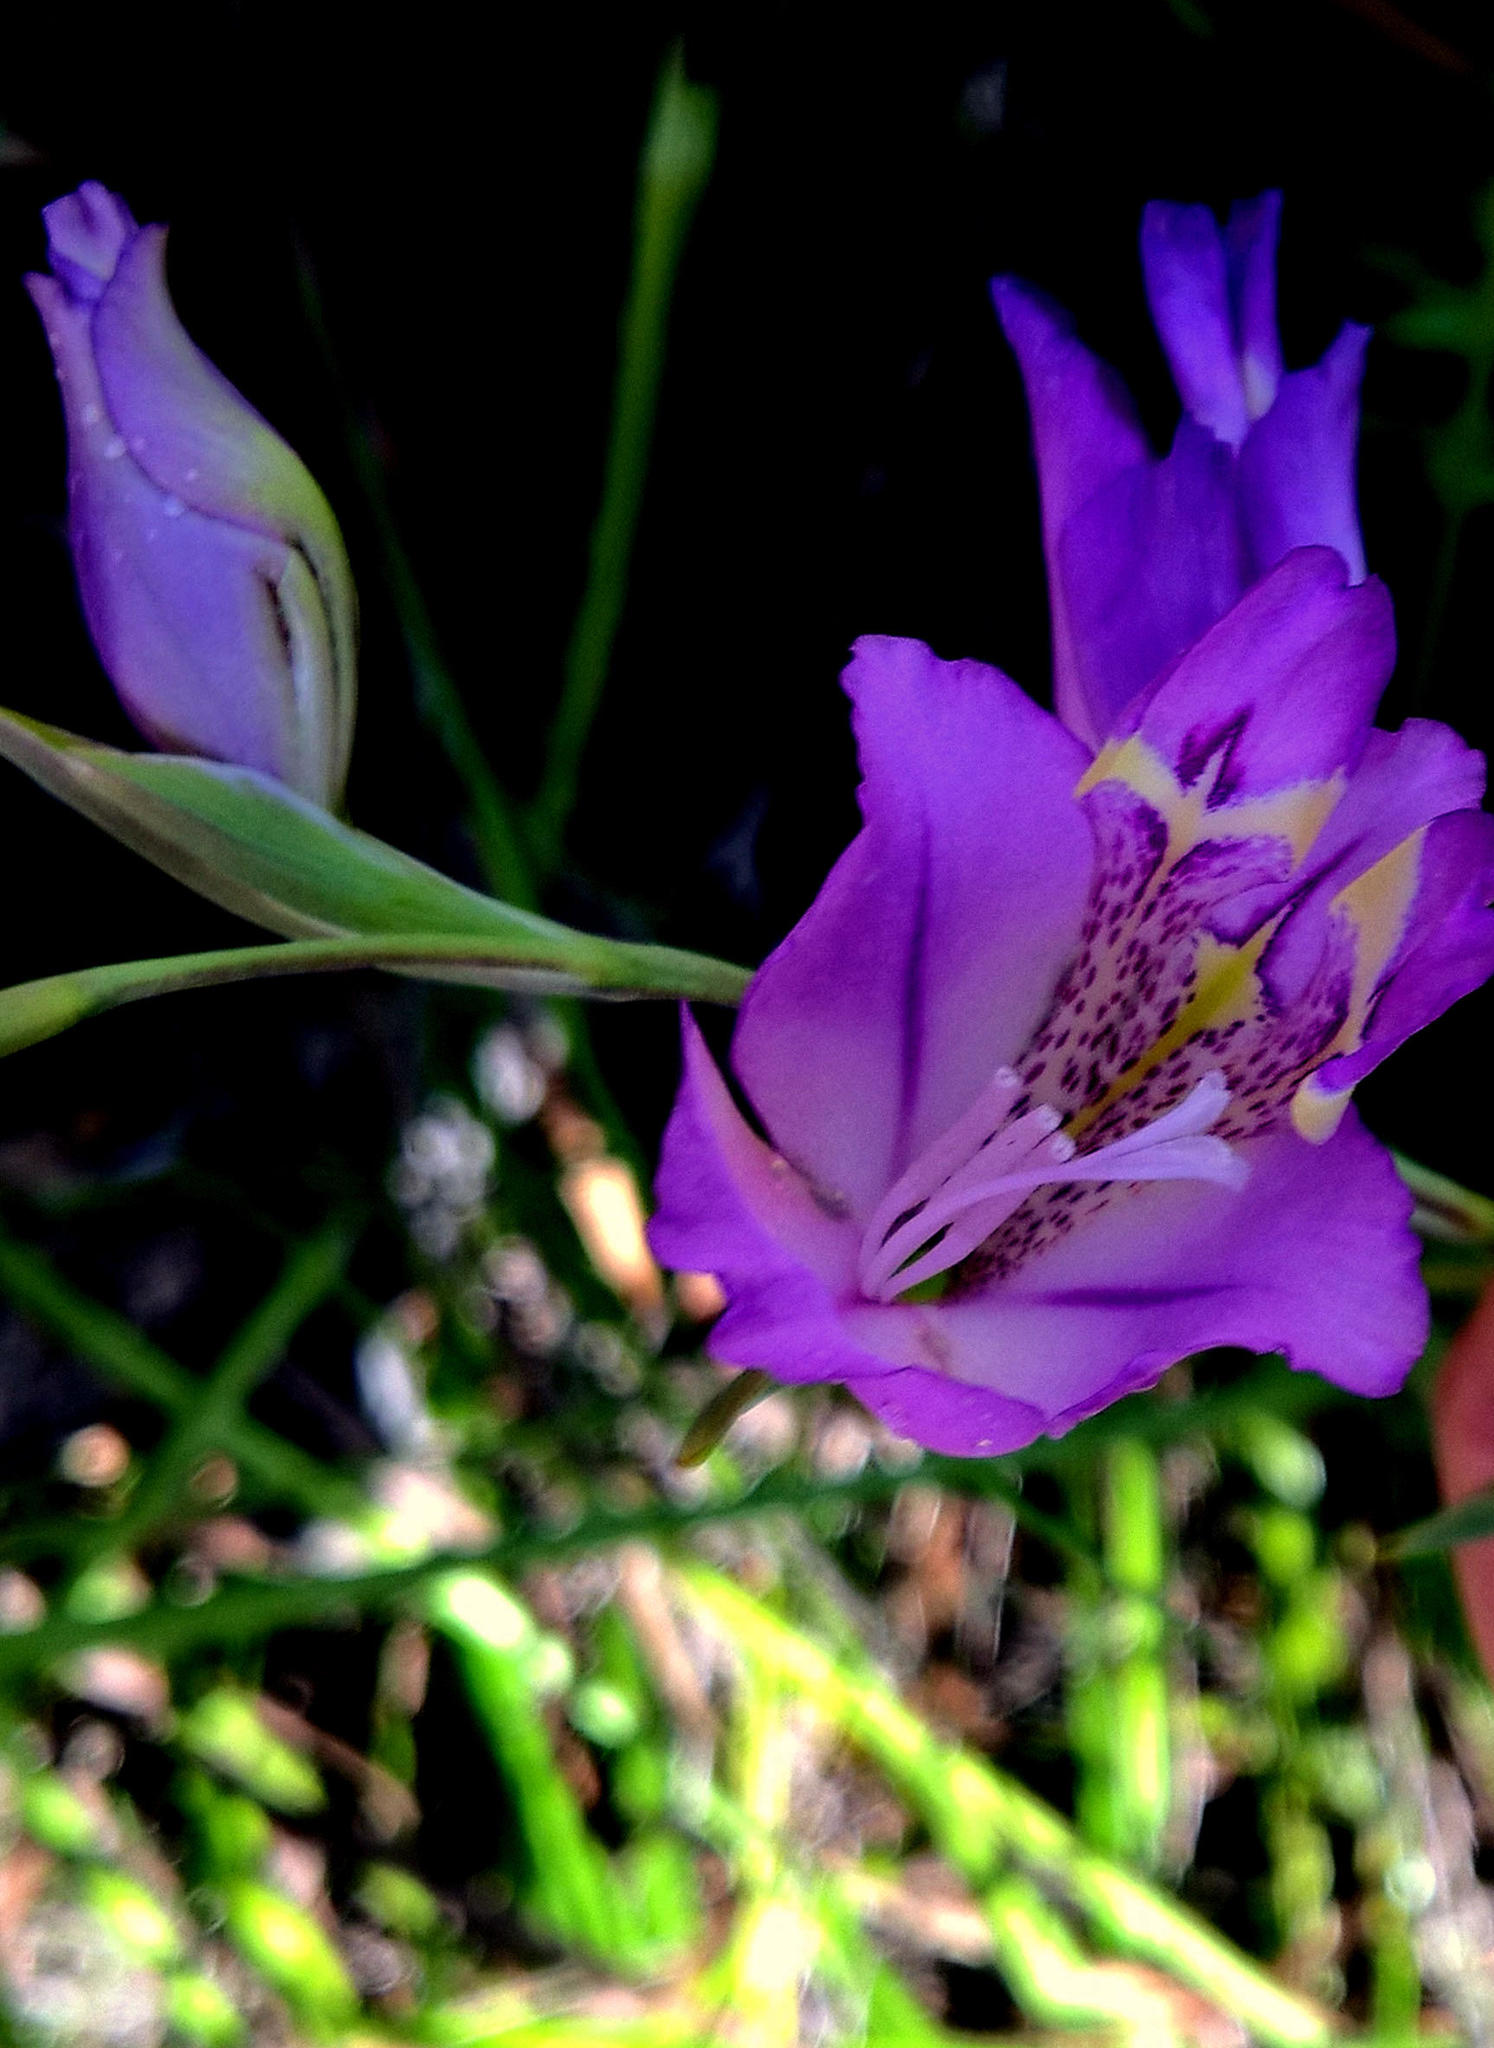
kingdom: Plantae
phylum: Tracheophyta
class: Liliopsida
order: Asparagales
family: Iridaceae
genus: Gladiolus
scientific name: Gladiolus rogersii
